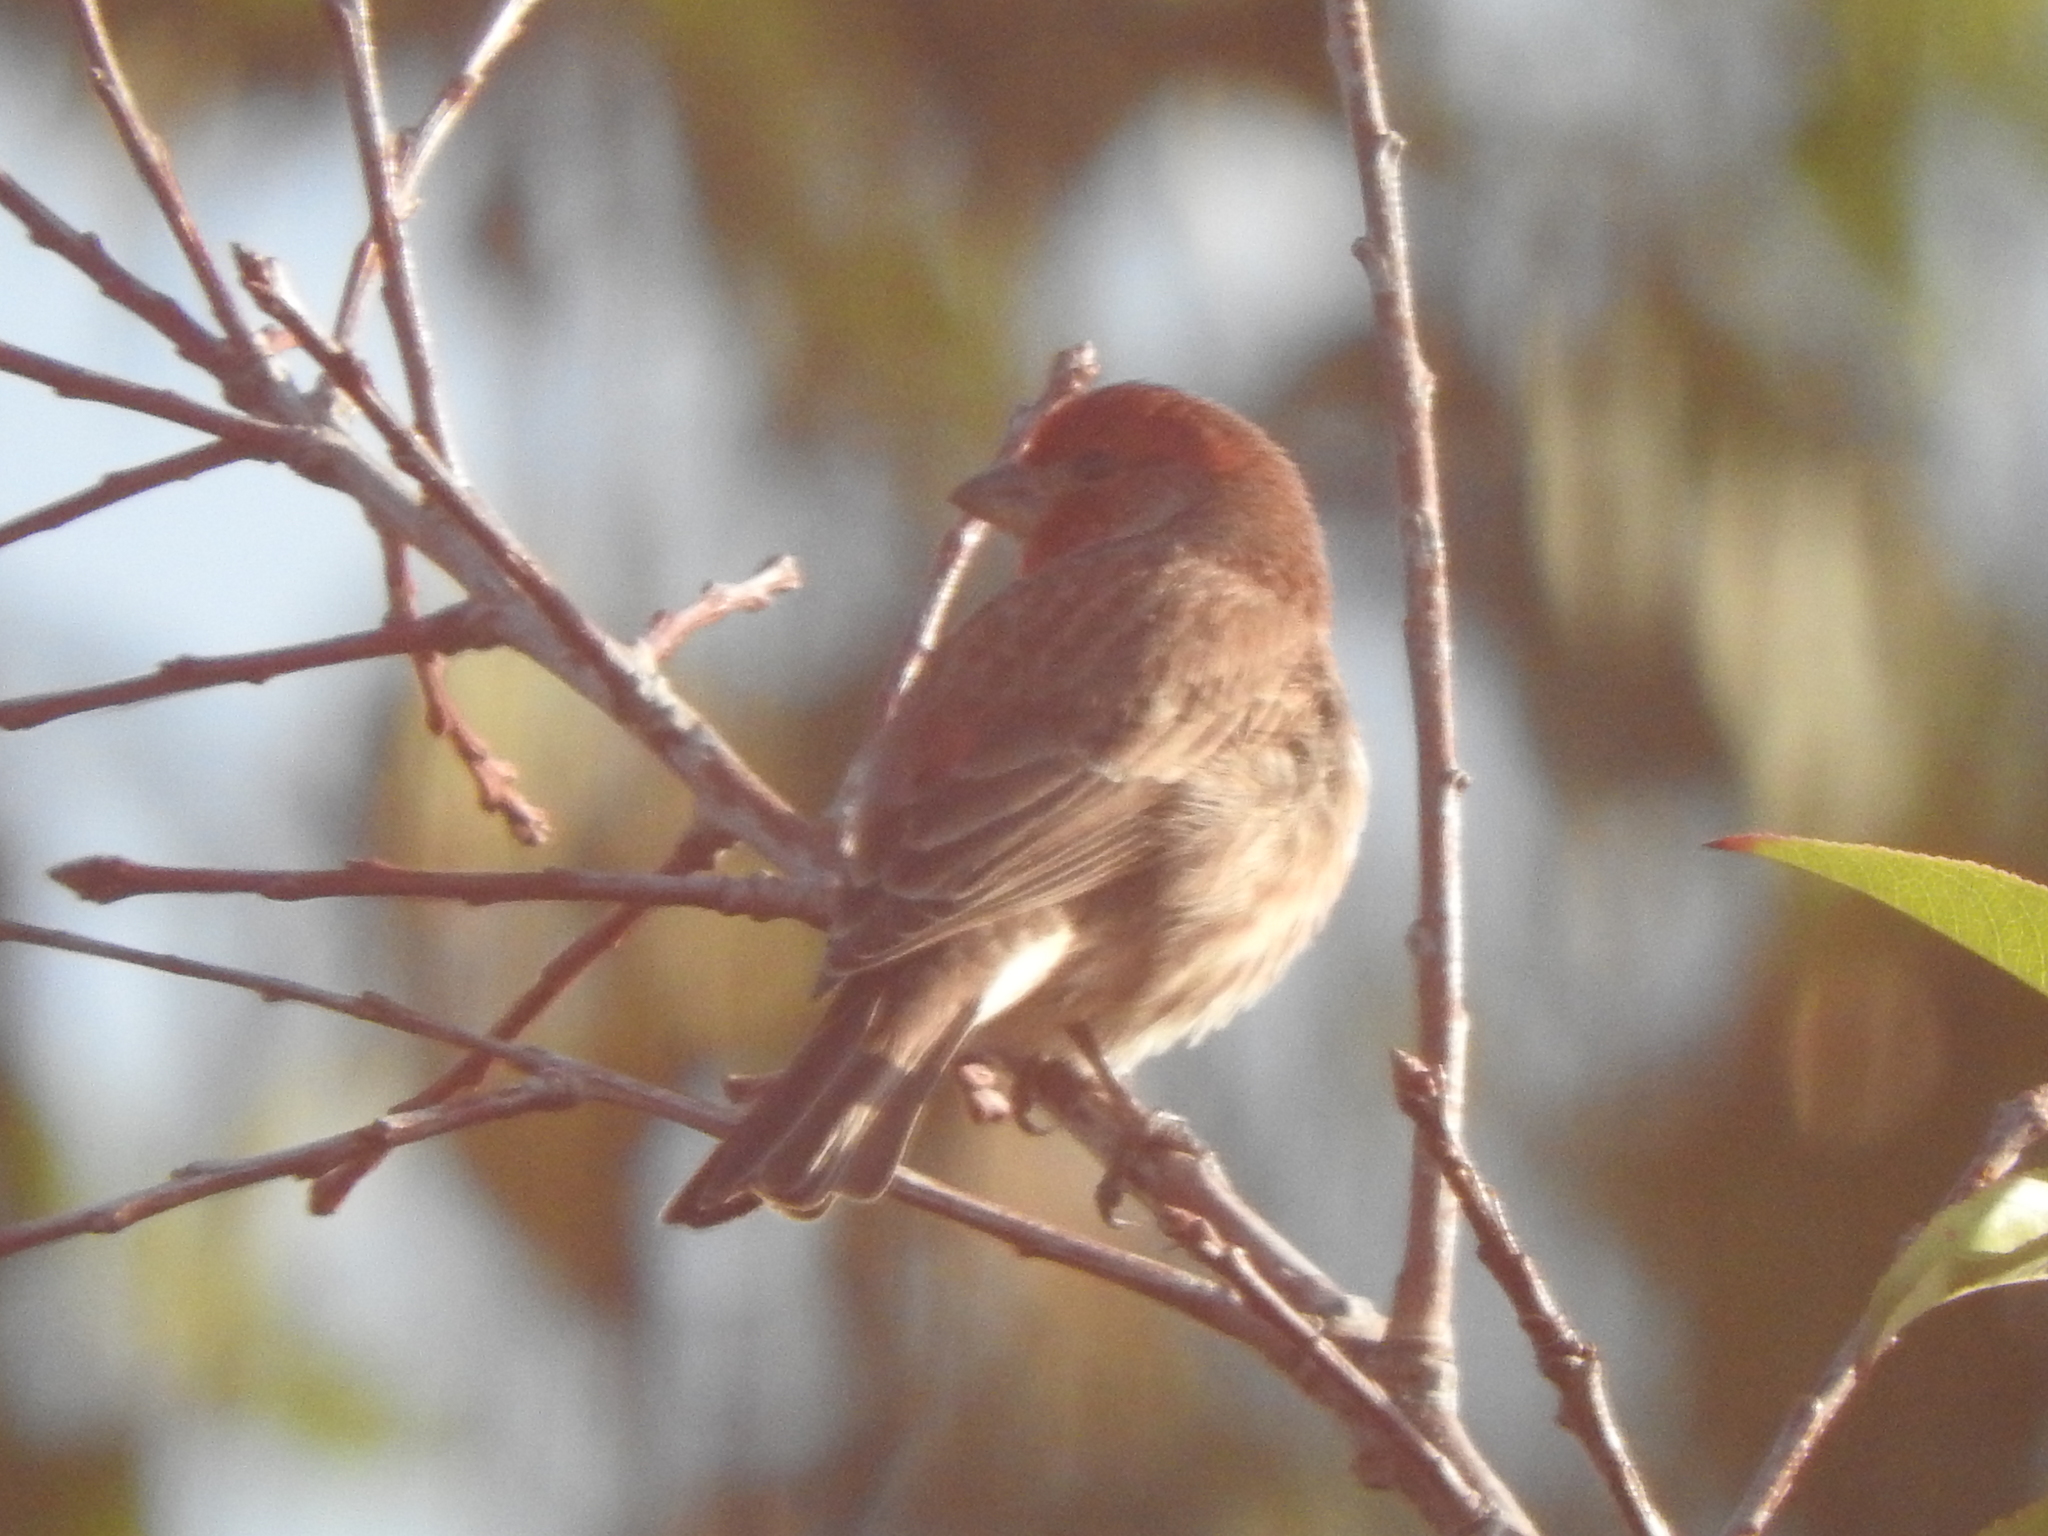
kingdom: Animalia
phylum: Chordata
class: Aves
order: Passeriformes
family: Fringillidae
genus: Haemorhous
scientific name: Haemorhous mexicanus
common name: House finch
